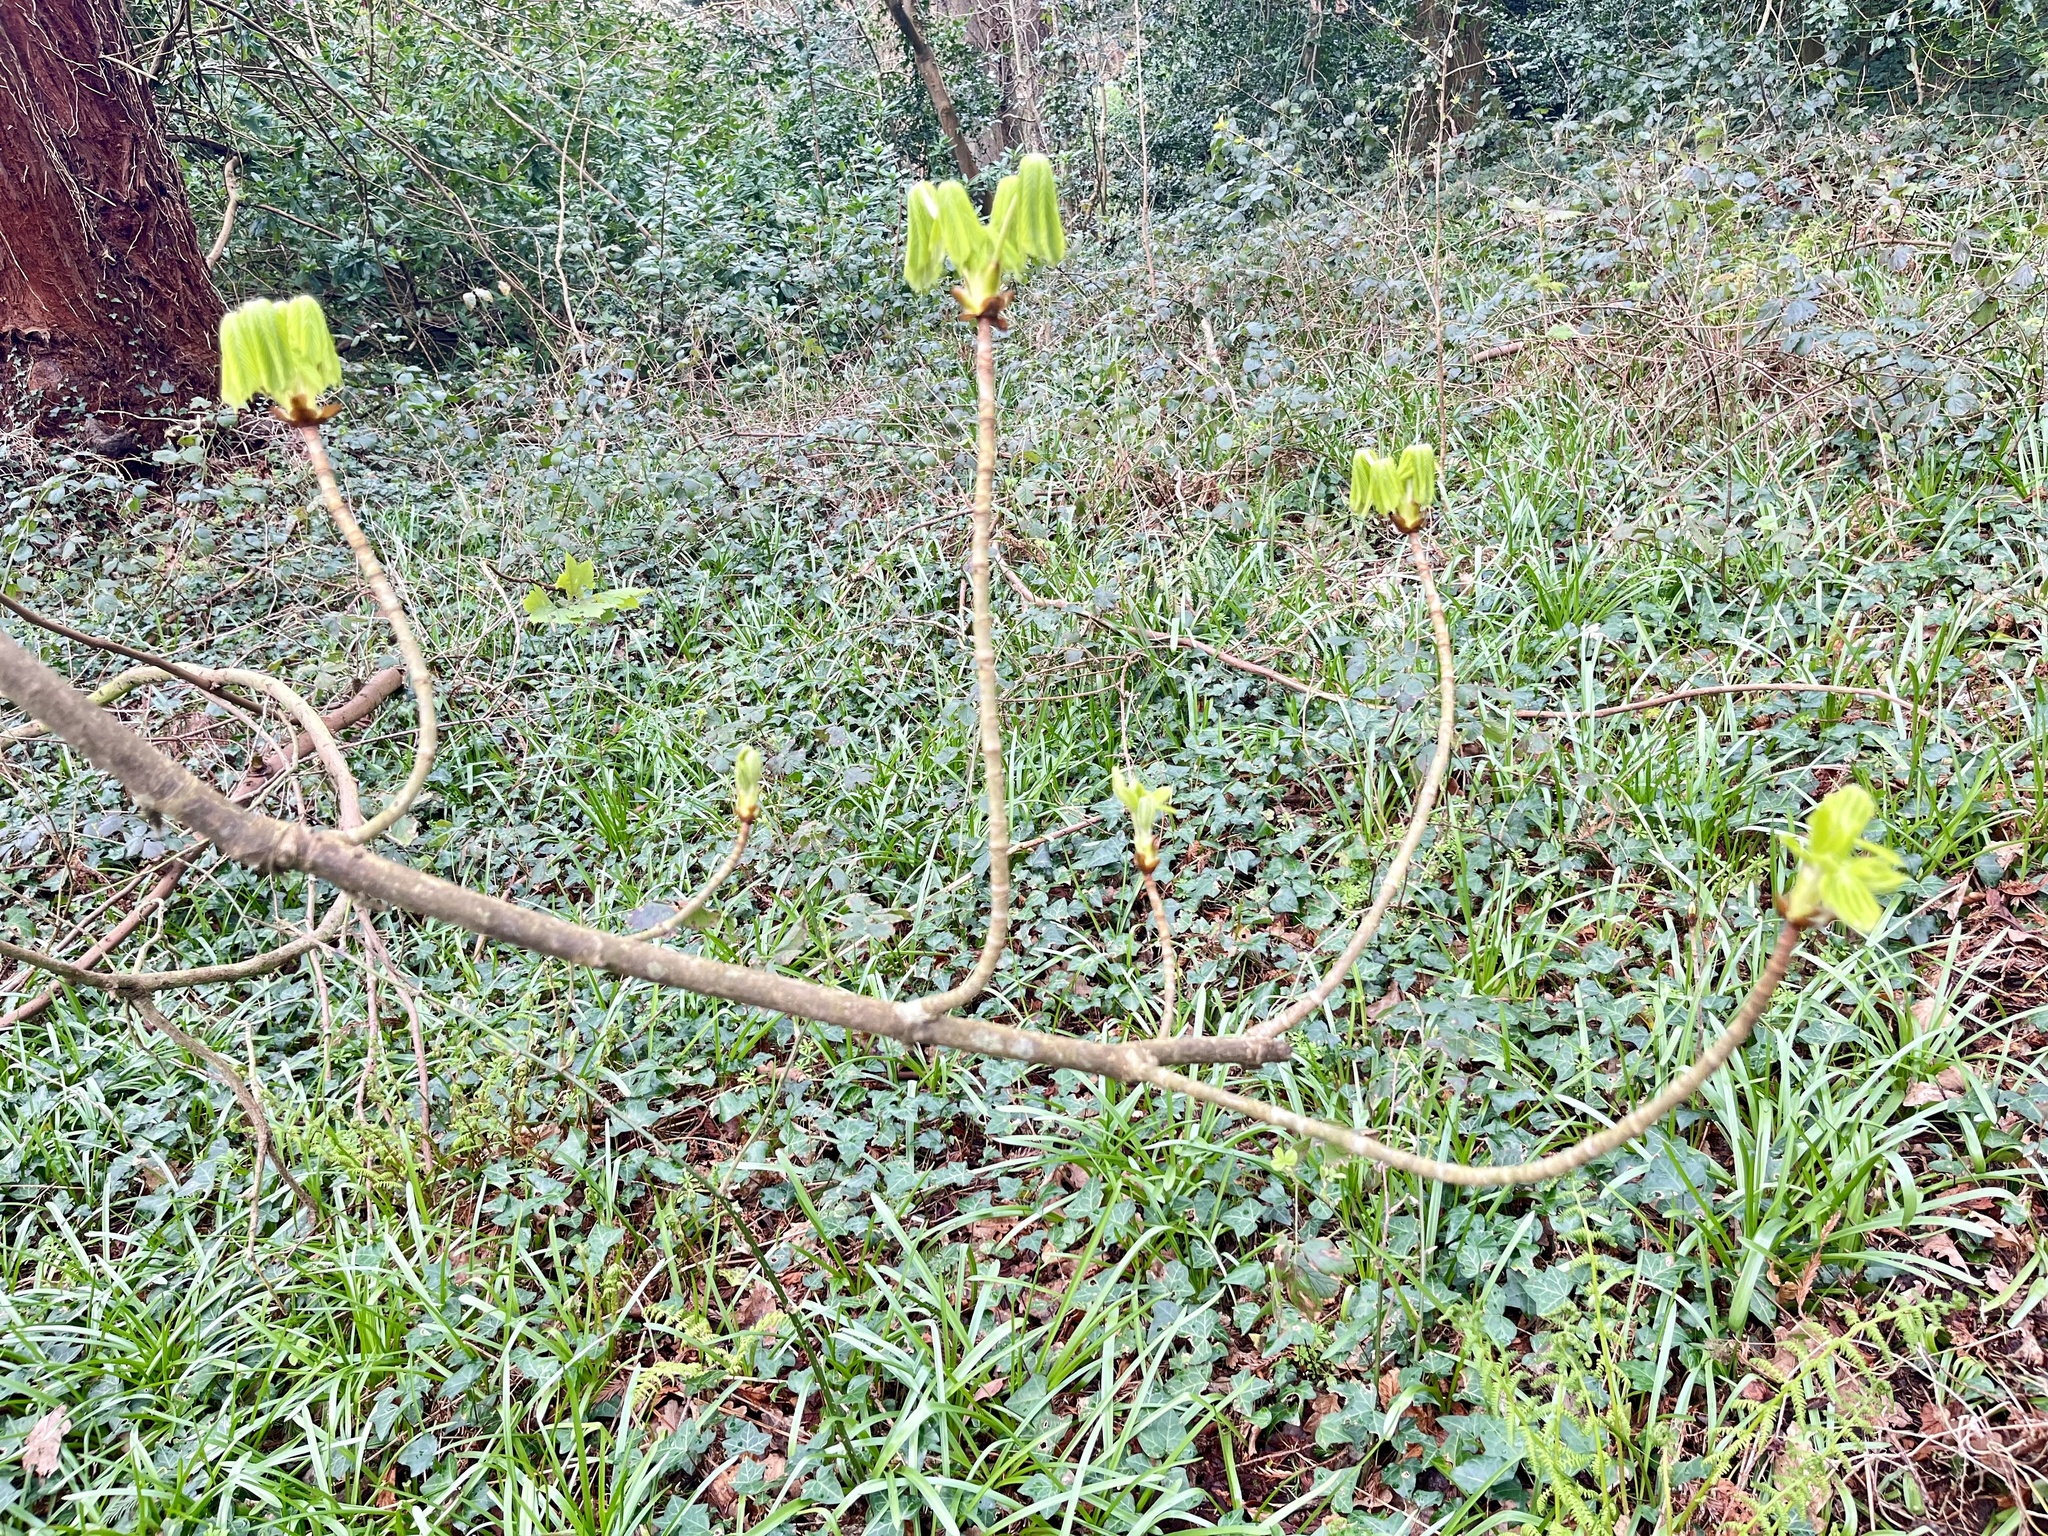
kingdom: Plantae
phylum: Tracheophyta
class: Magnoliopsida
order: Sapindales
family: Sapindaceae
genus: Aesculus
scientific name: Aesculus hippocastanum
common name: Horse-chestnut
